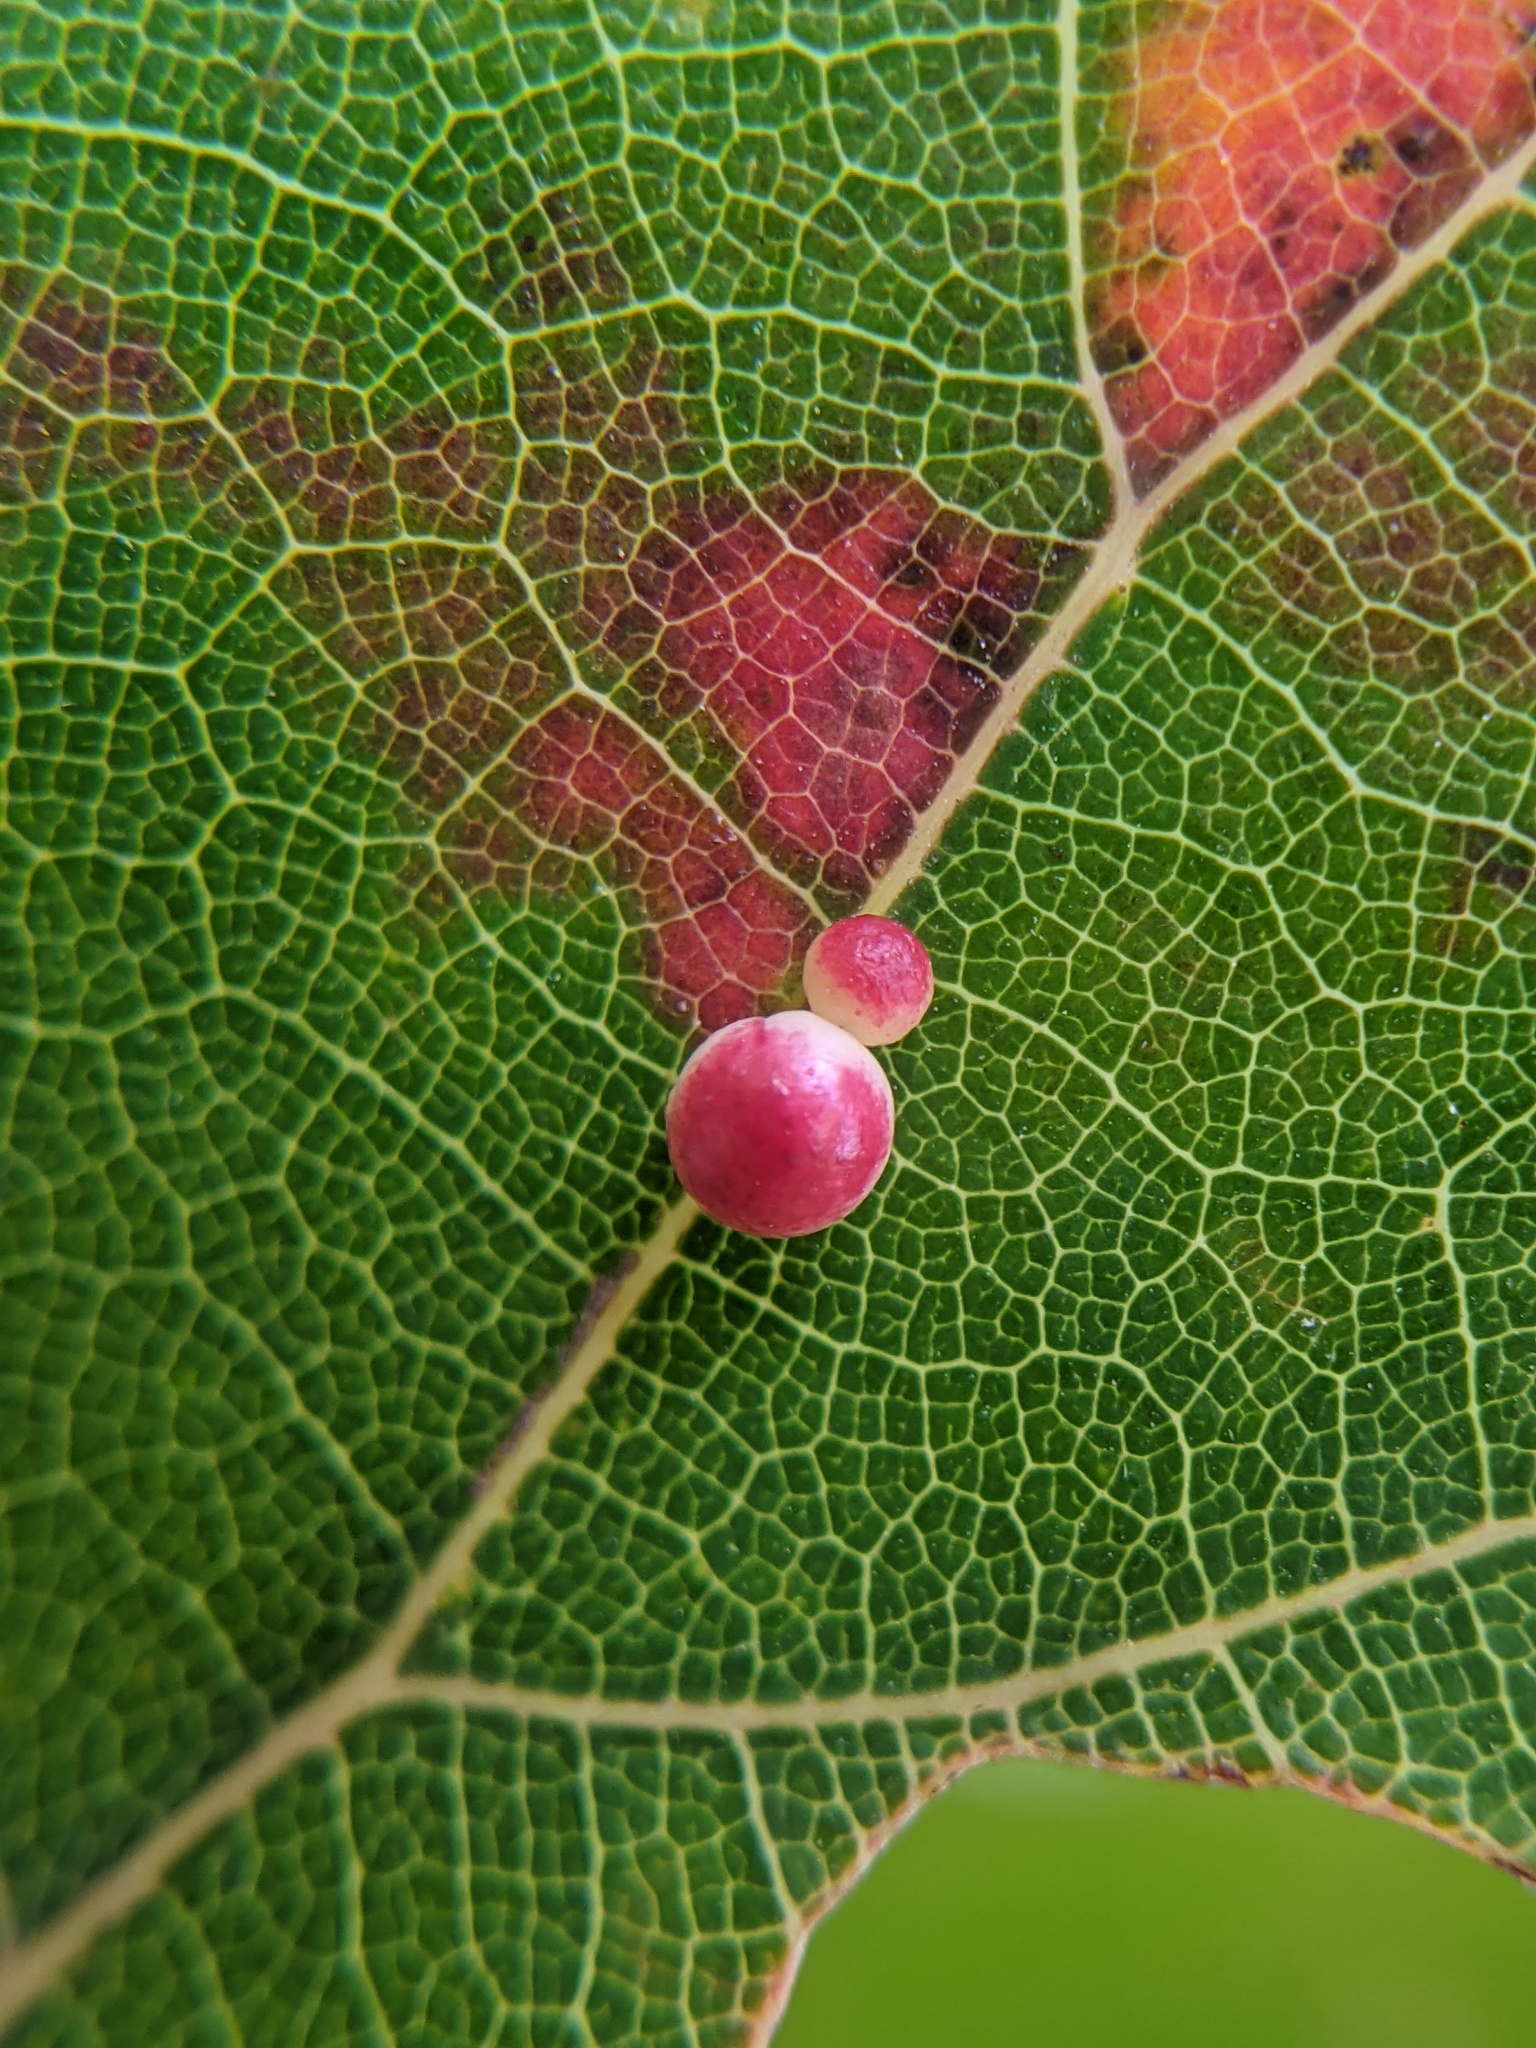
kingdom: Animalia
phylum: Arthropoda
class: Insecta
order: Hymenoptera
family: Cynipidae
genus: Zopheroteras
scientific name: Zopheroteras
